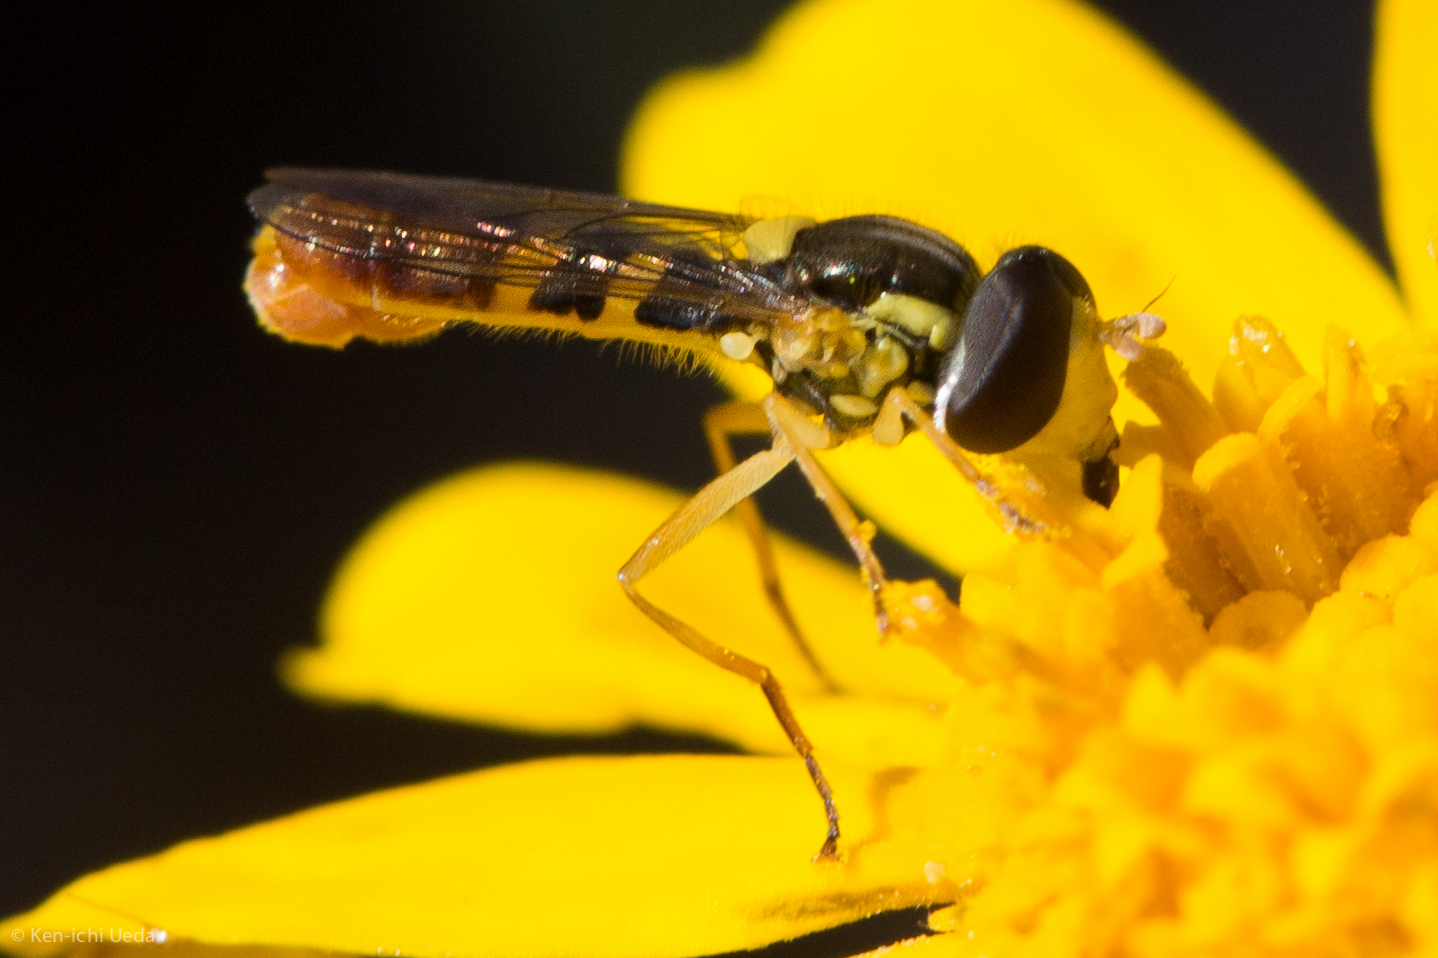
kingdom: Animalia
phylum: Arthropoda
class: Insecta
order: Diptera
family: Syrphidae
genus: Sphaerophoria
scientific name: Sphaerophoria sulphuripes
